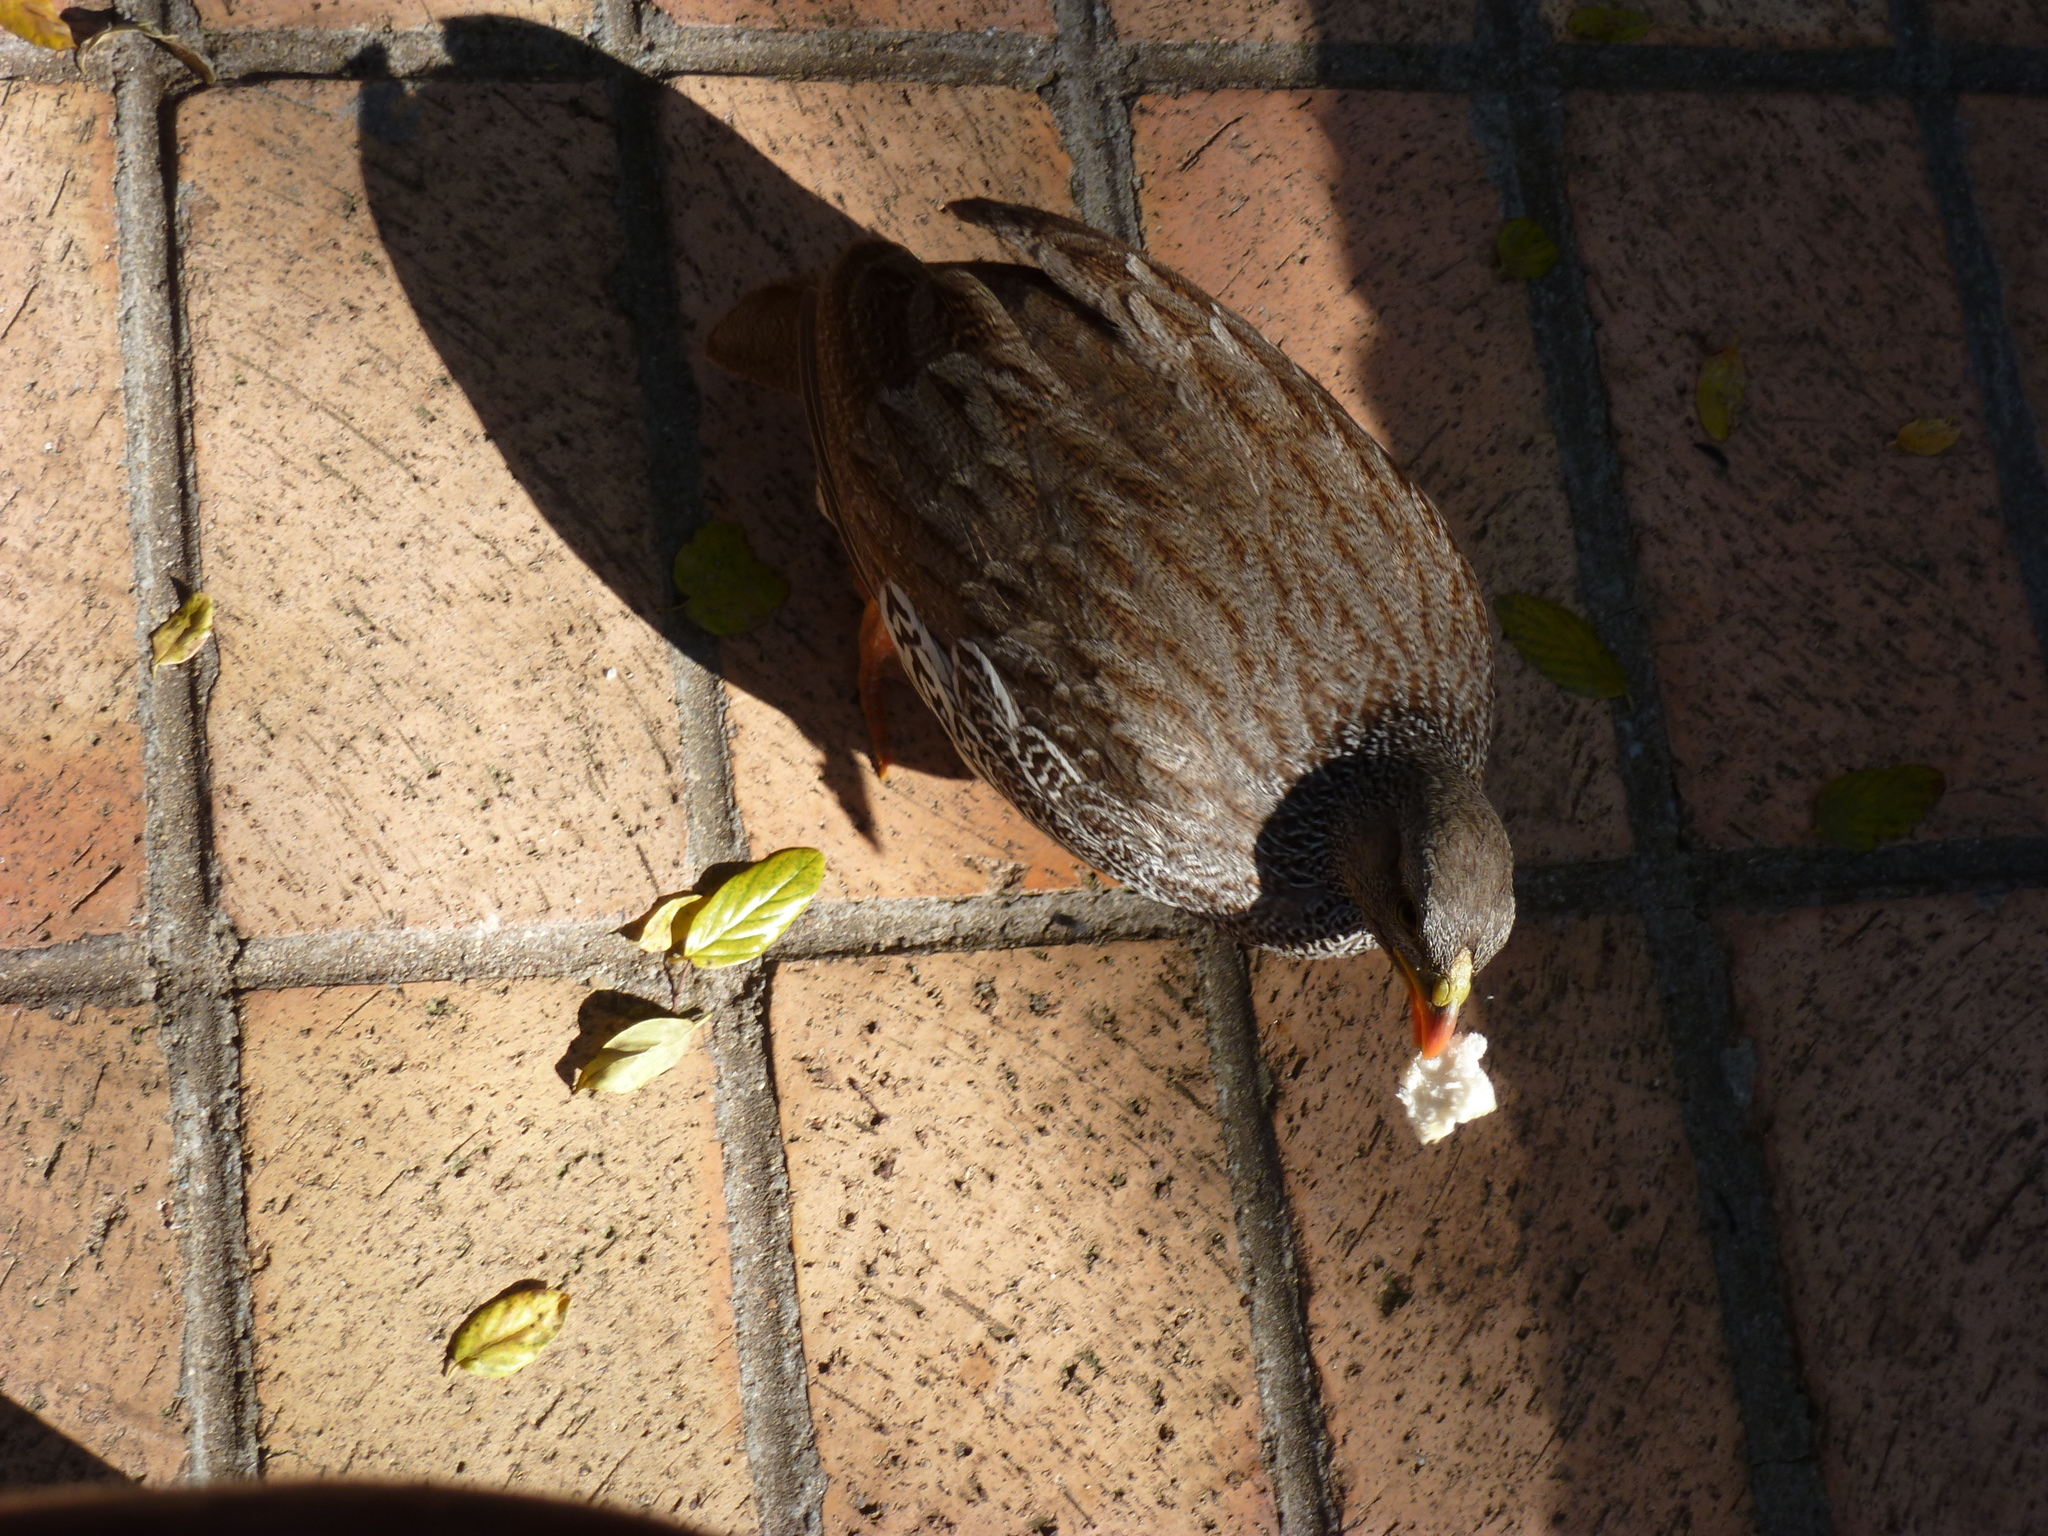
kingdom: Animalia
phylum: Chordata
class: Aves
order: Galliformes
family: Phasianidae
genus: Pternistis
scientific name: Pternistis natalensis
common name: Natal spurfowl
